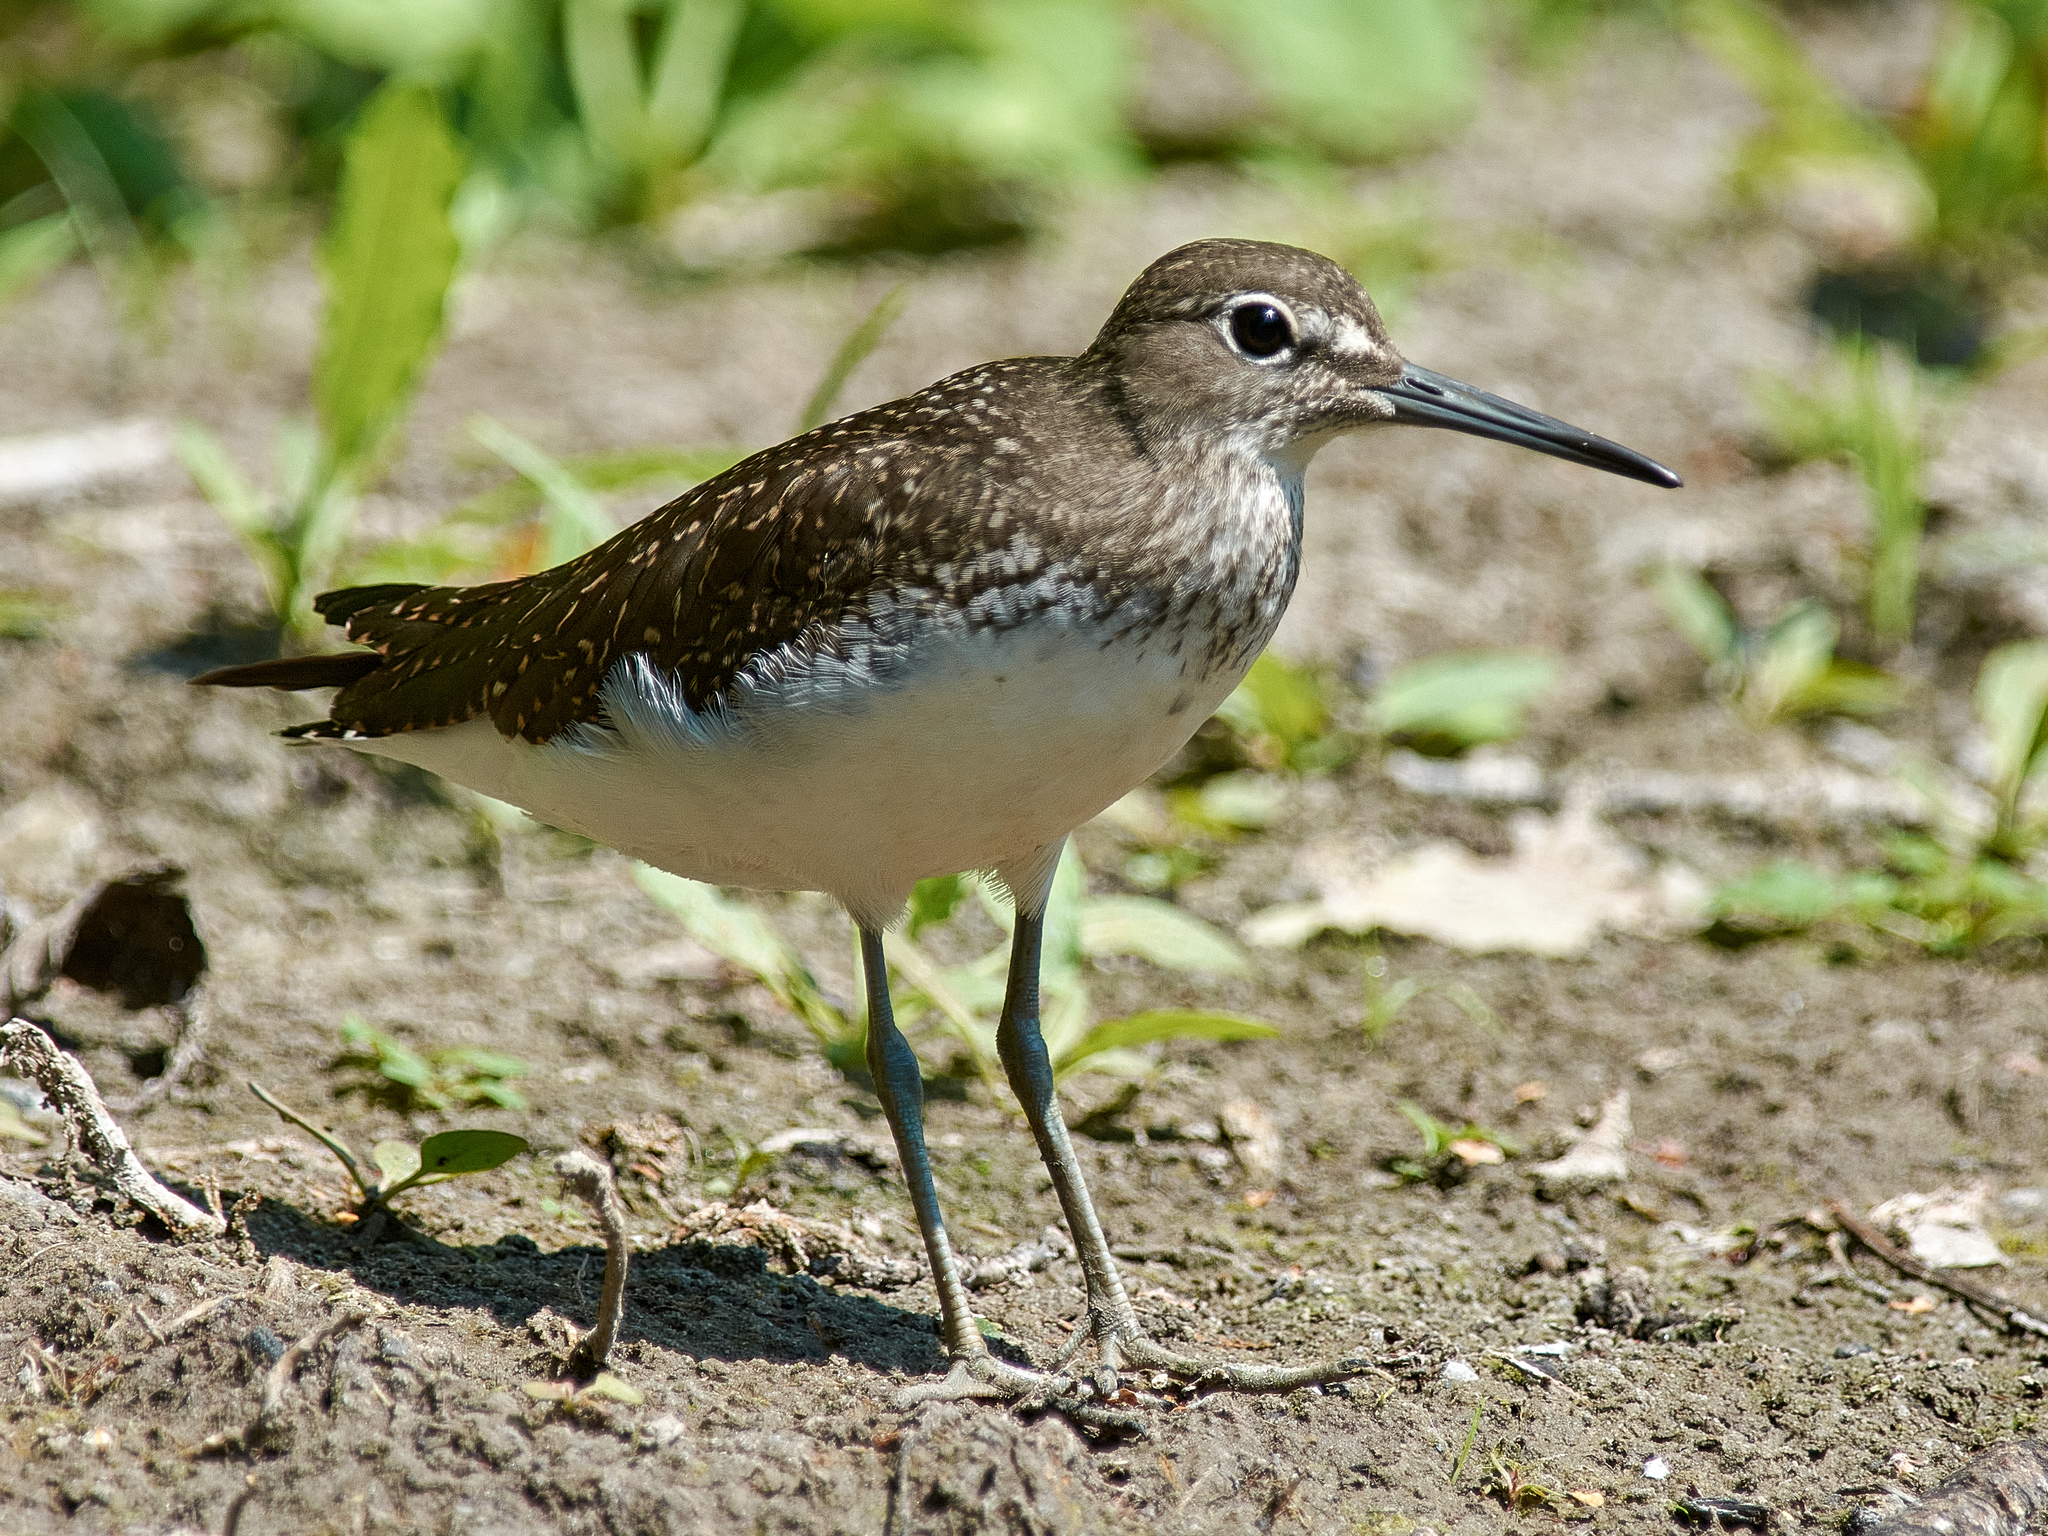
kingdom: Animalia
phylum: Chordata
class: Aves
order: Charadriiformes
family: Scolopacidae
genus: Tringa
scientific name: Tringa ochropus
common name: Green sandpiper
